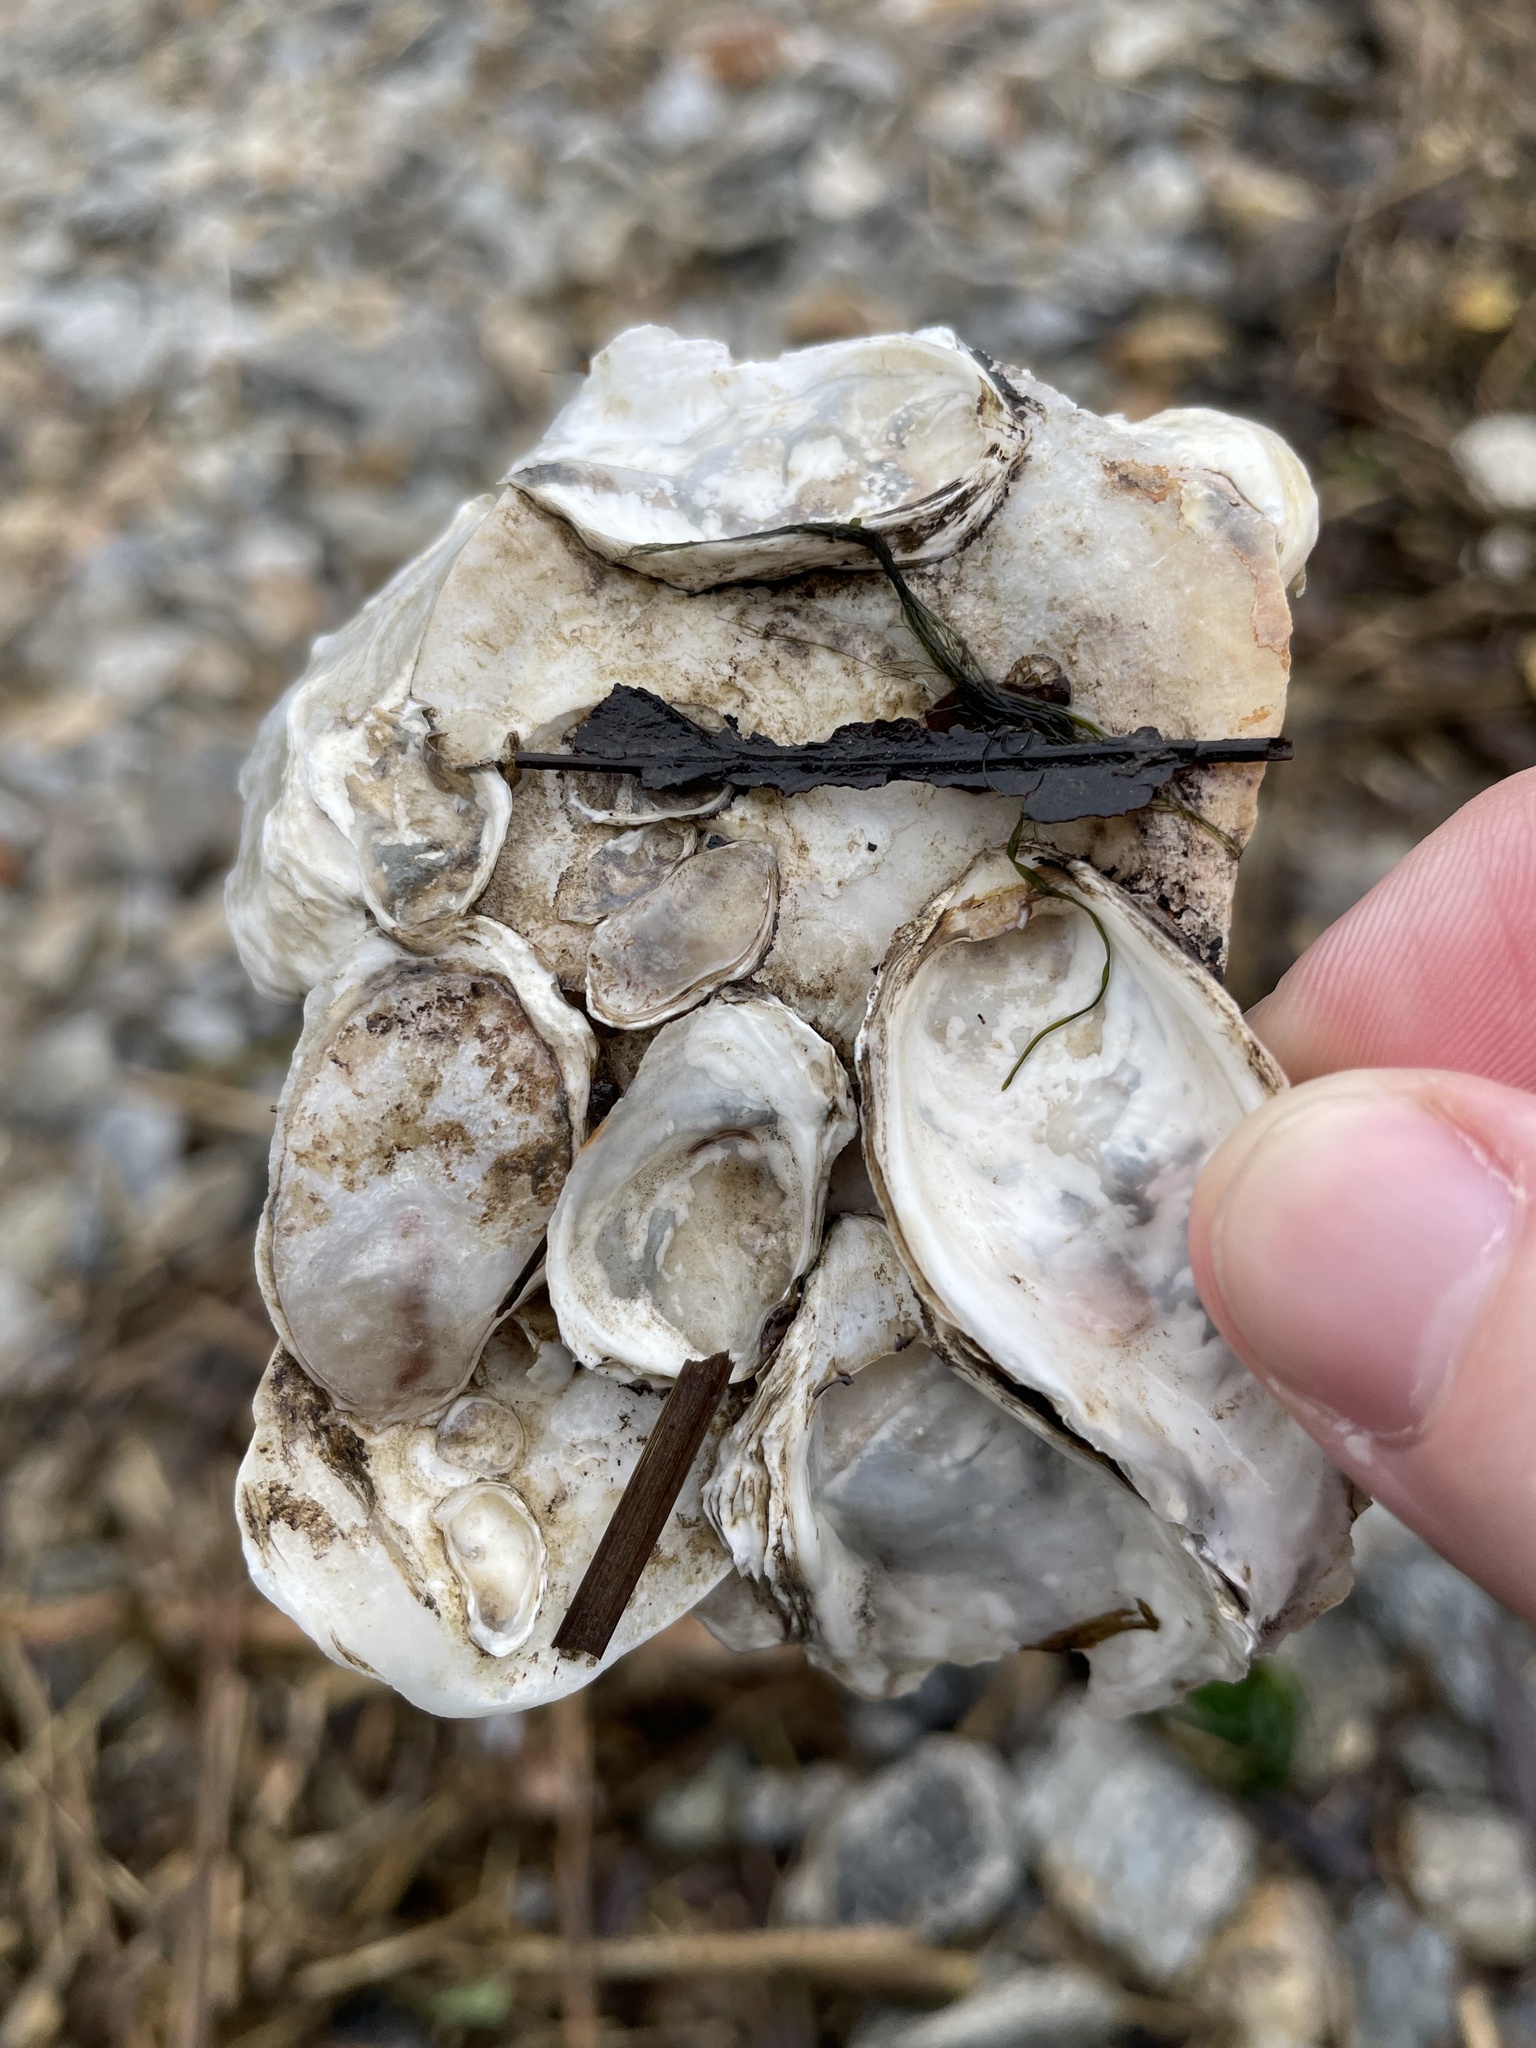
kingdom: Animalia
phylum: Mollusca
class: Bivalvia
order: Ostreida
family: Ostreidae
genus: Crassostrea
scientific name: Crassostrea virginica
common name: American oyster
